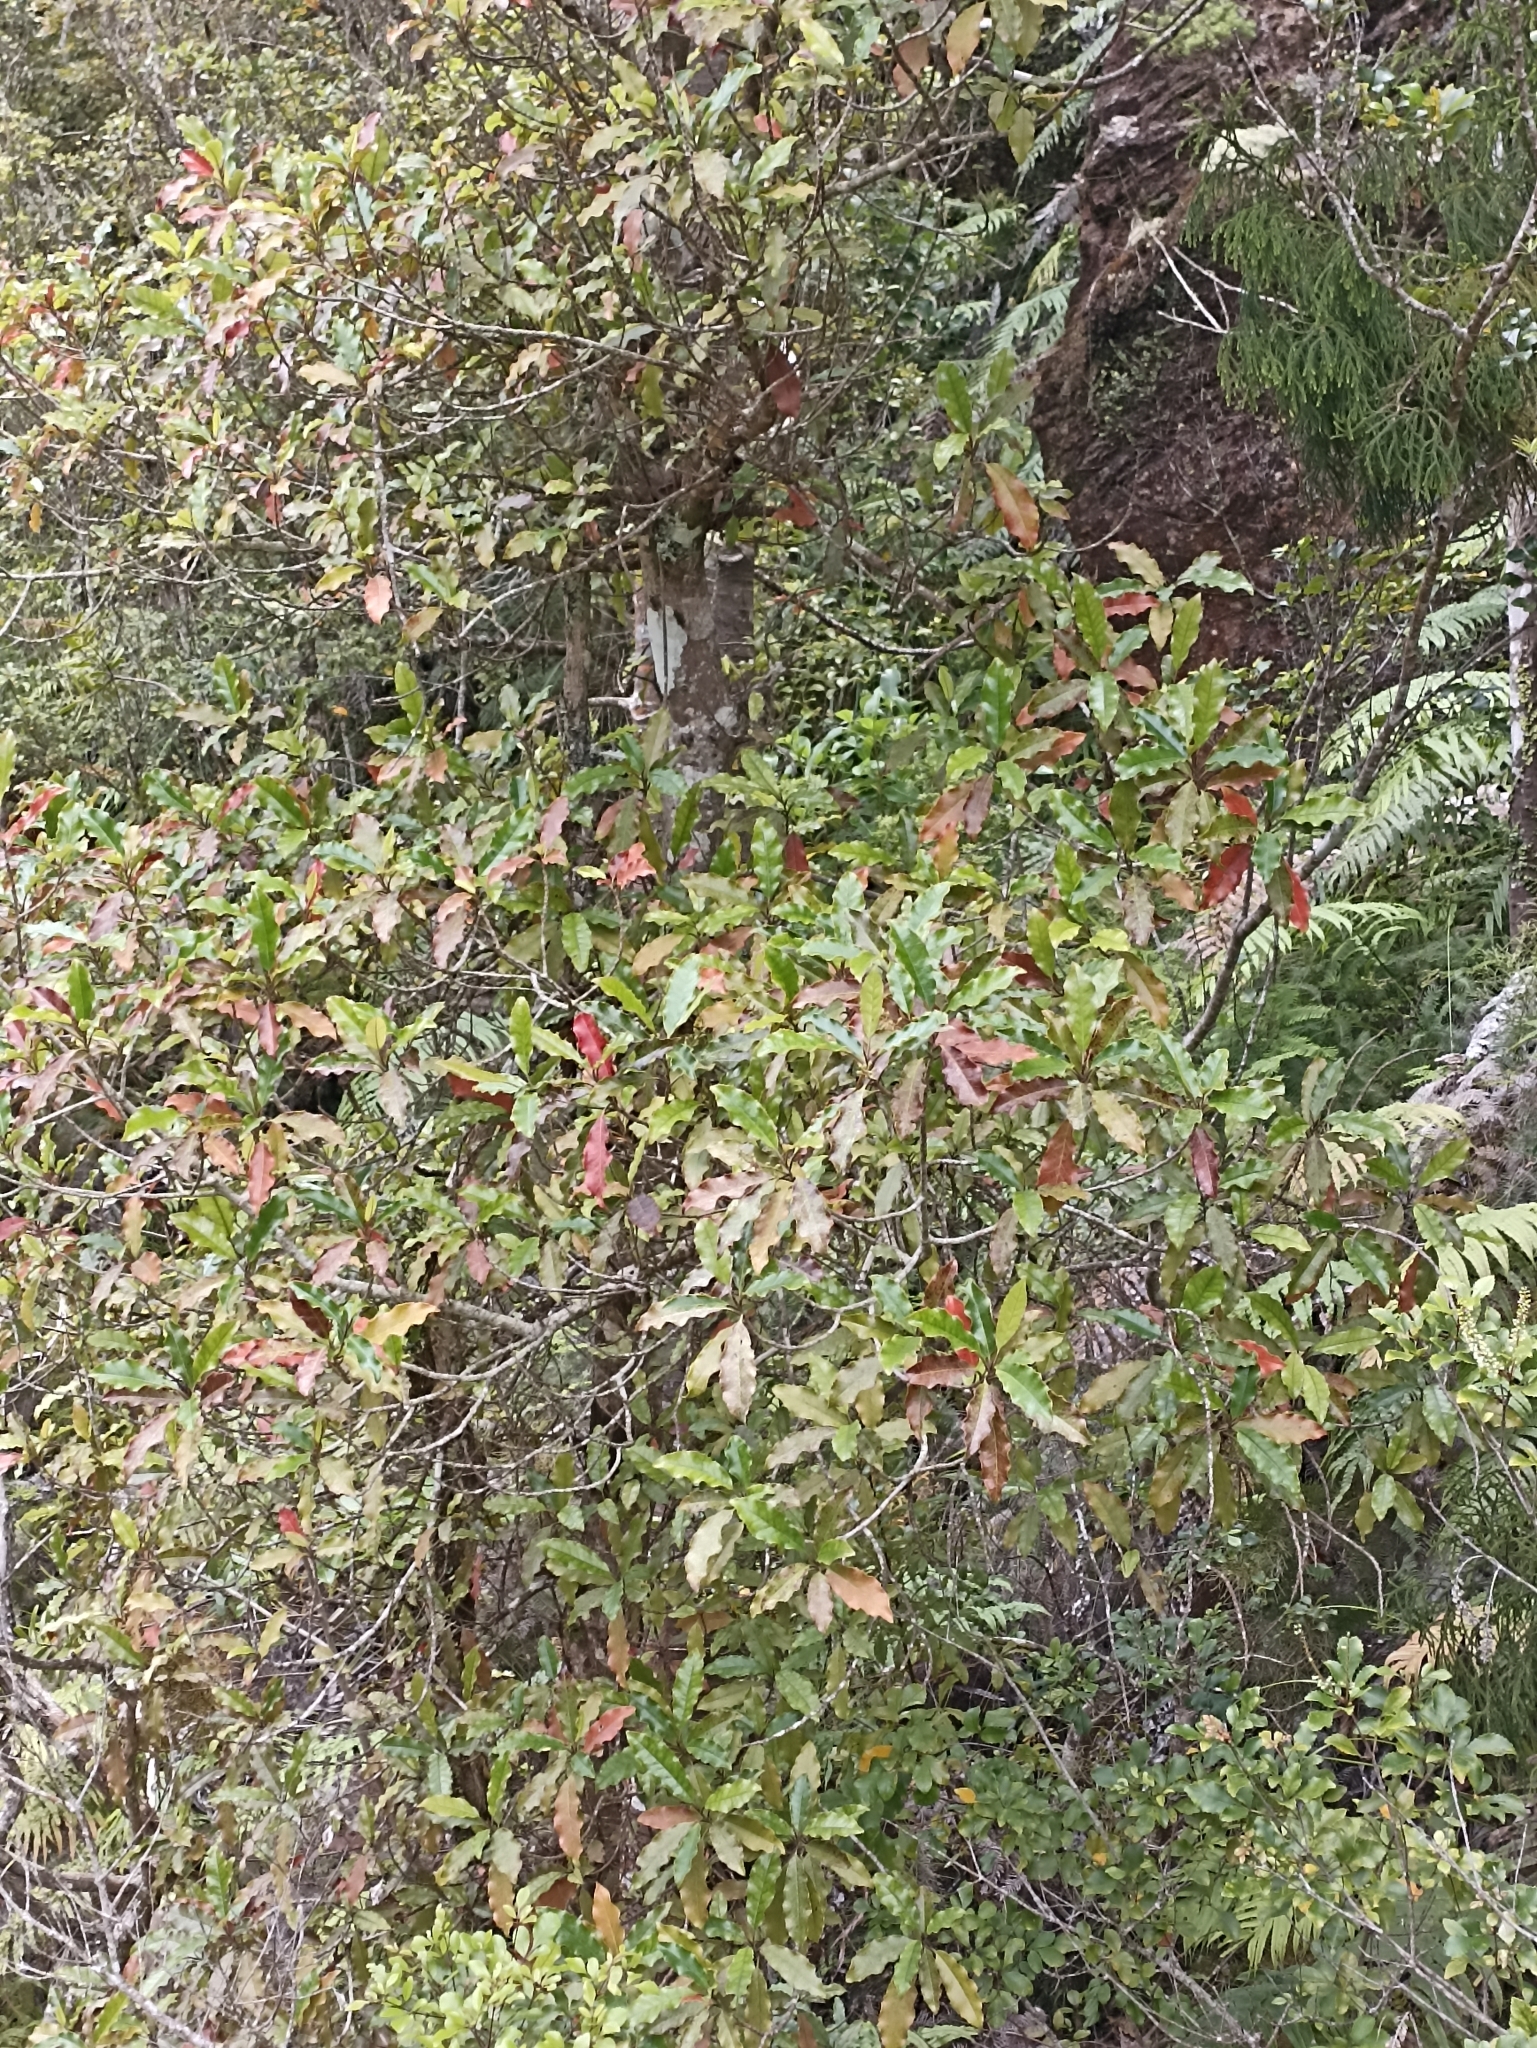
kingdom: Plantae
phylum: Tracheophyta
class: Magnoliopsida
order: Paracryphiales
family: Paracryphiaceae
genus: Quintinia
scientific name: Quintinia serrata
